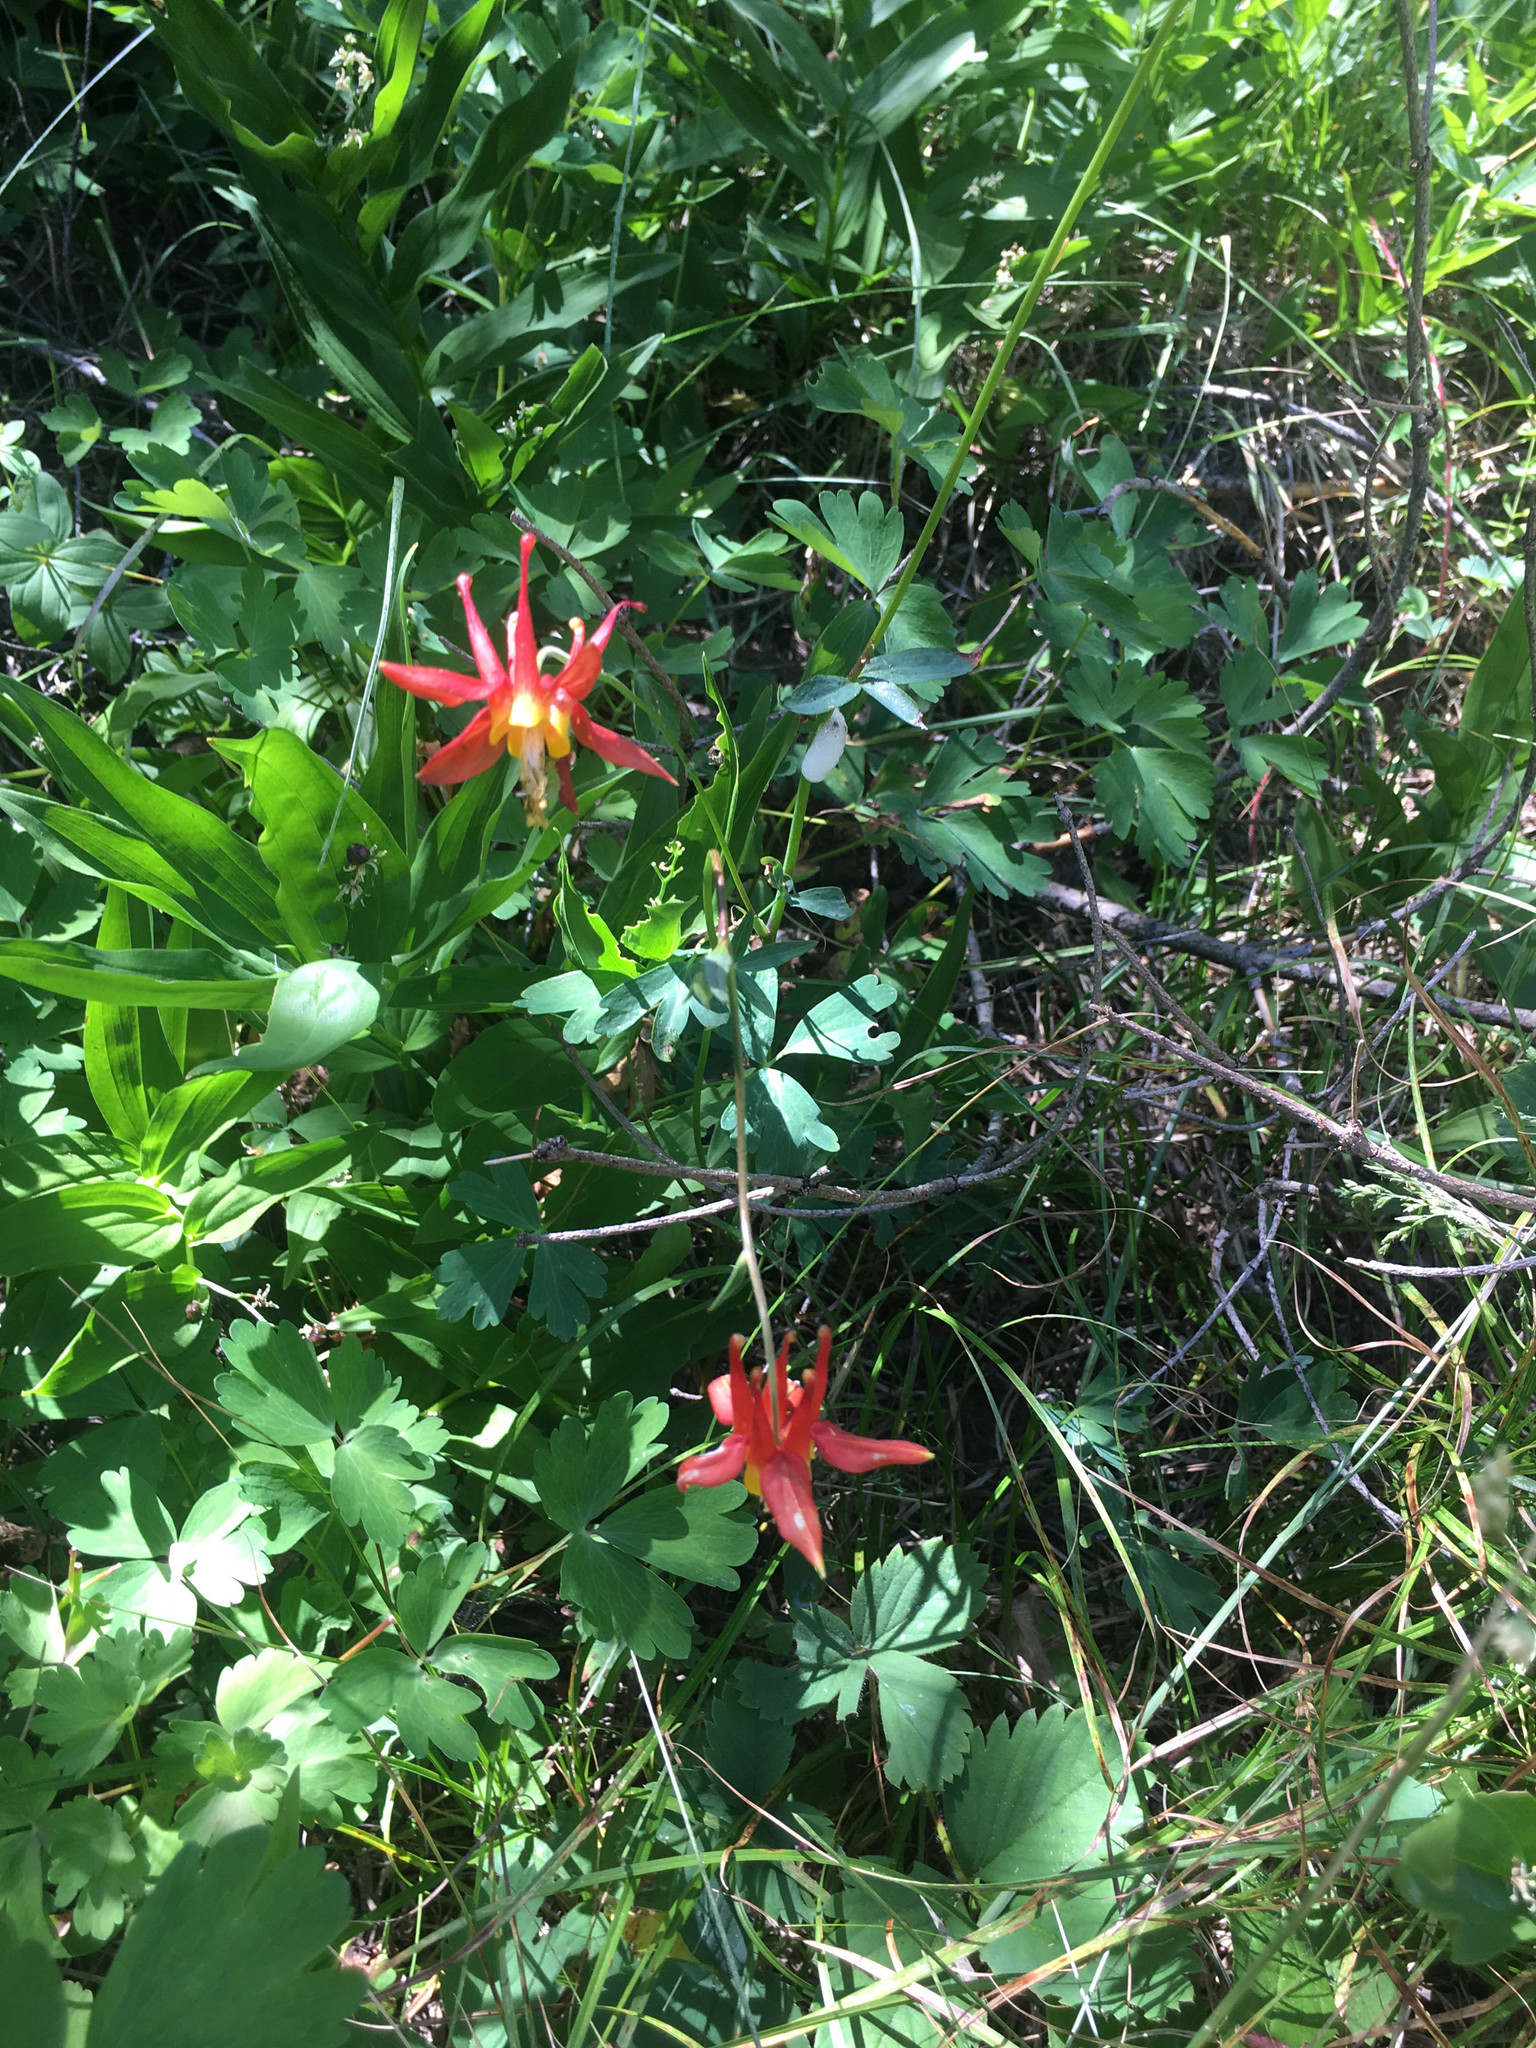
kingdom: Plantae
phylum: Tracheophyta
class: Magnoliopsida
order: Ranunculales
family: Ranunculaceae
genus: Aquilegia
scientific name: Aquilegia formosa
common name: Sitka columbine
